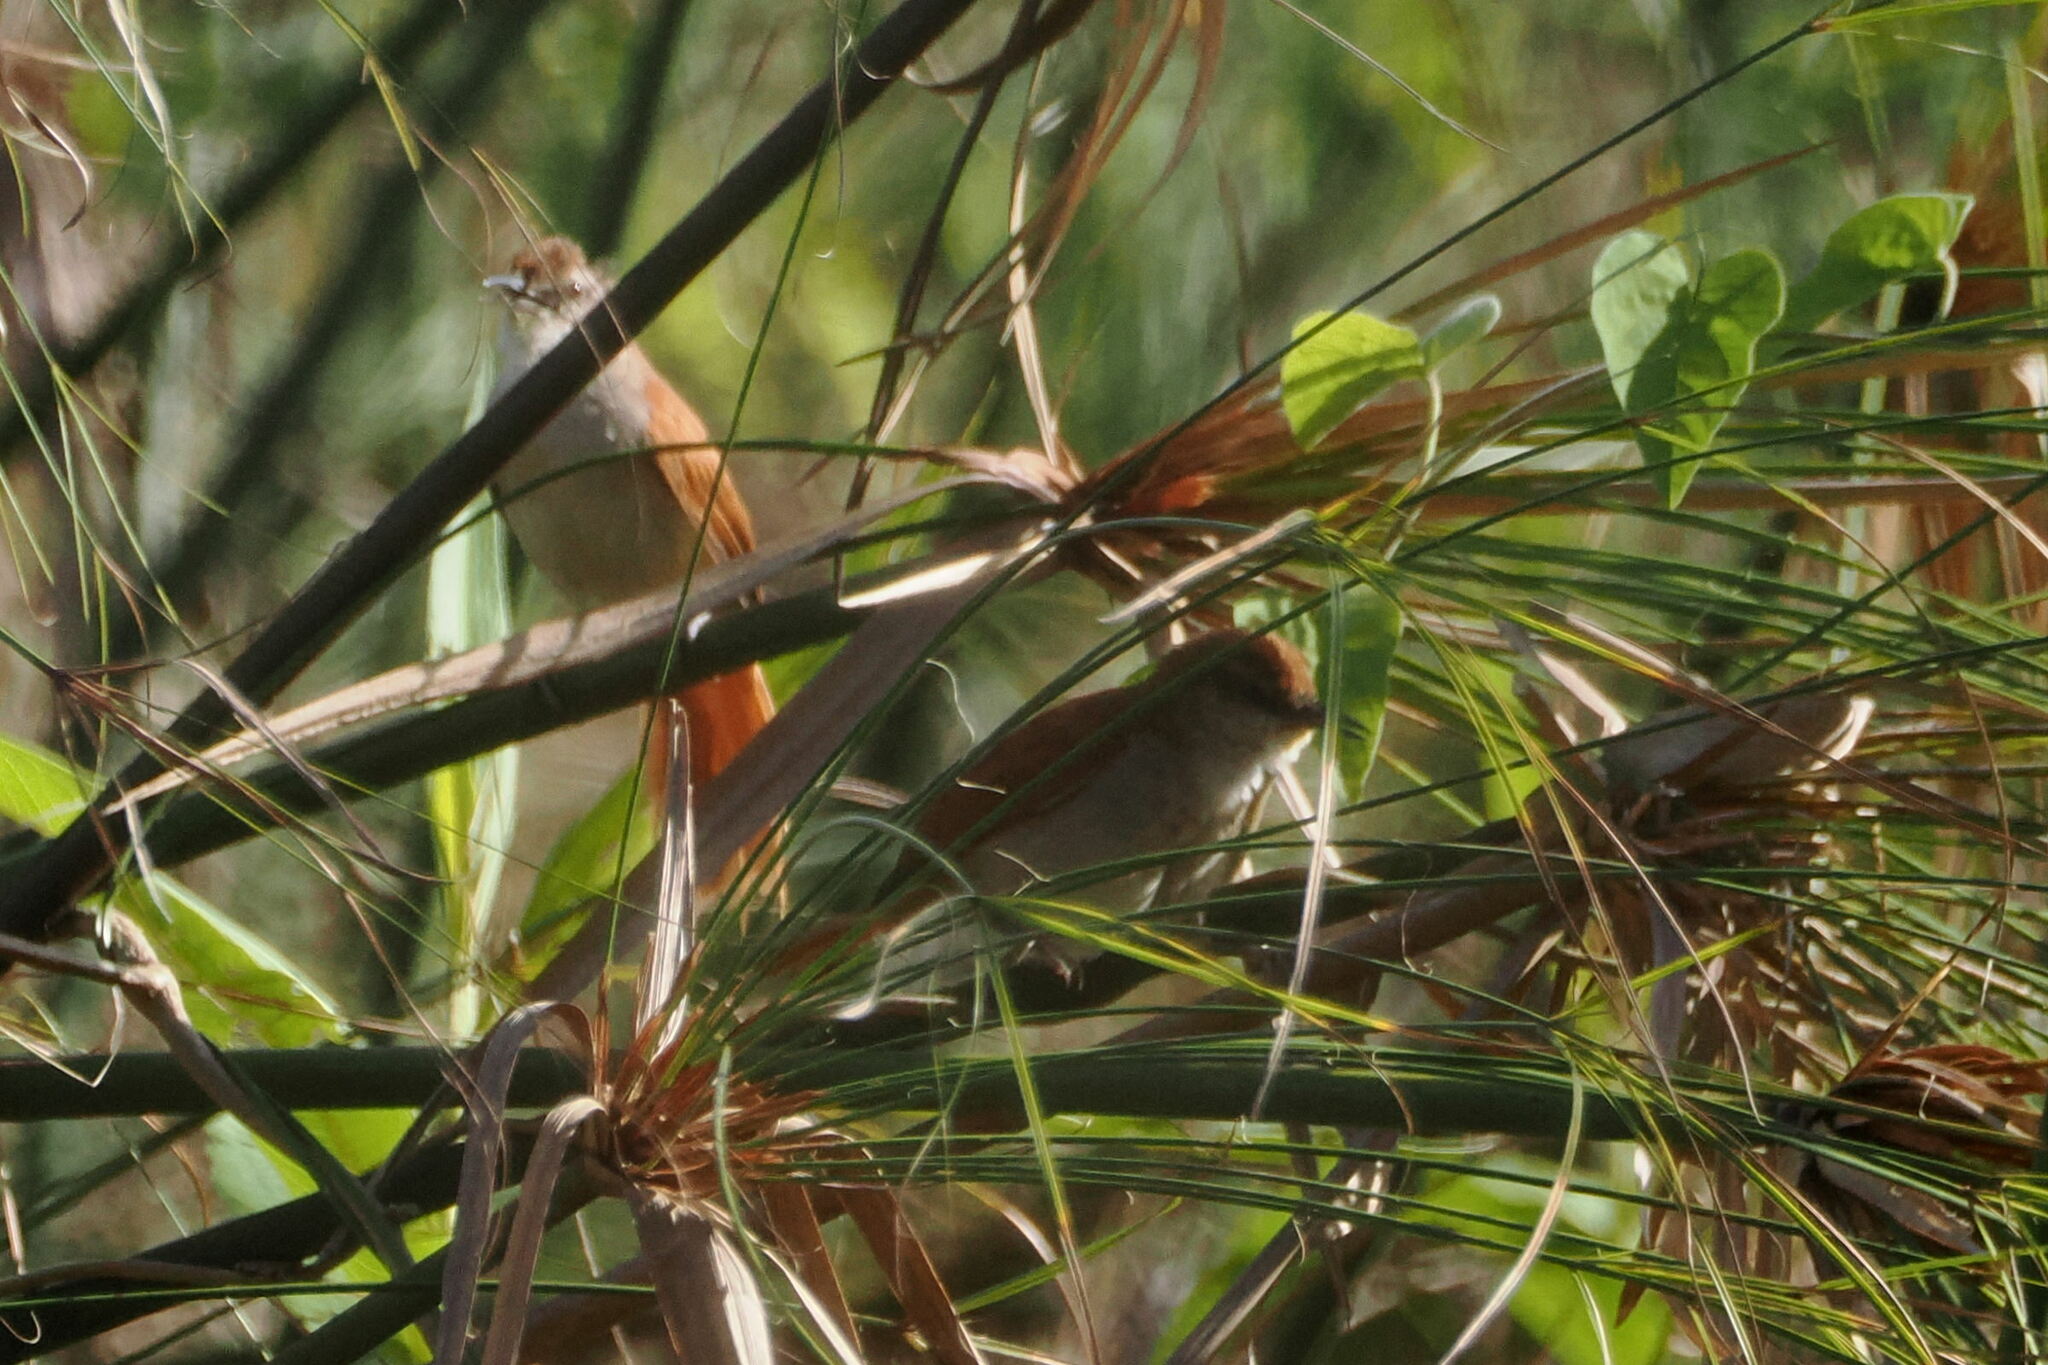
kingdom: Animalia
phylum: Chordata
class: Aves
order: Passeriformes
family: Furnariidae
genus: Certhiaxis
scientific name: Certhiaxis cinnamomeus
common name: Yellow-chinned spinetail
